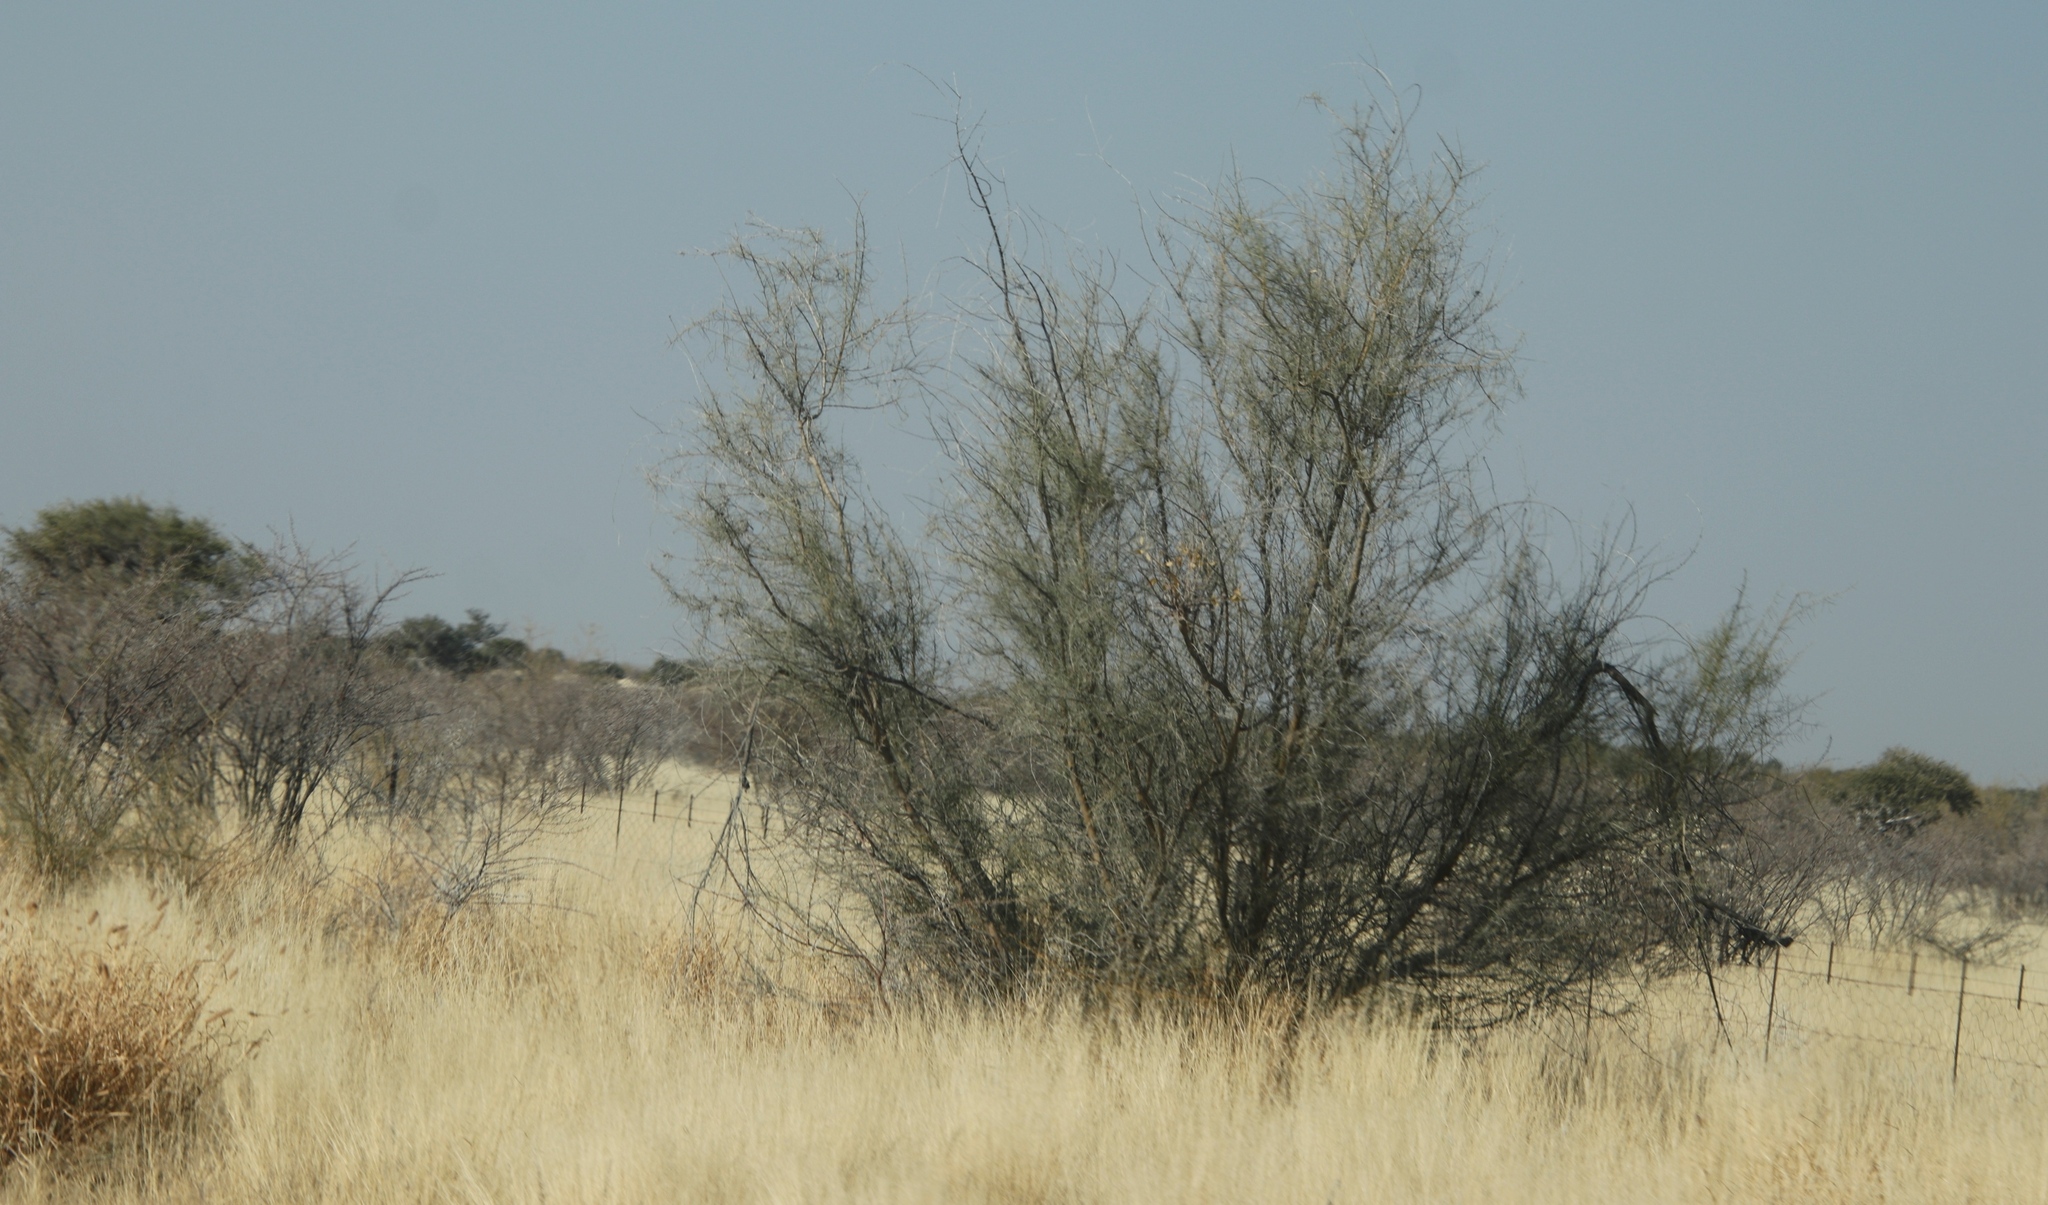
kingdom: Plantae
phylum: Tracheophyta
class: Magnoliopsida
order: Fabales
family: Fabaceae
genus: Parkinsonia
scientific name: Parkinsonia africana
